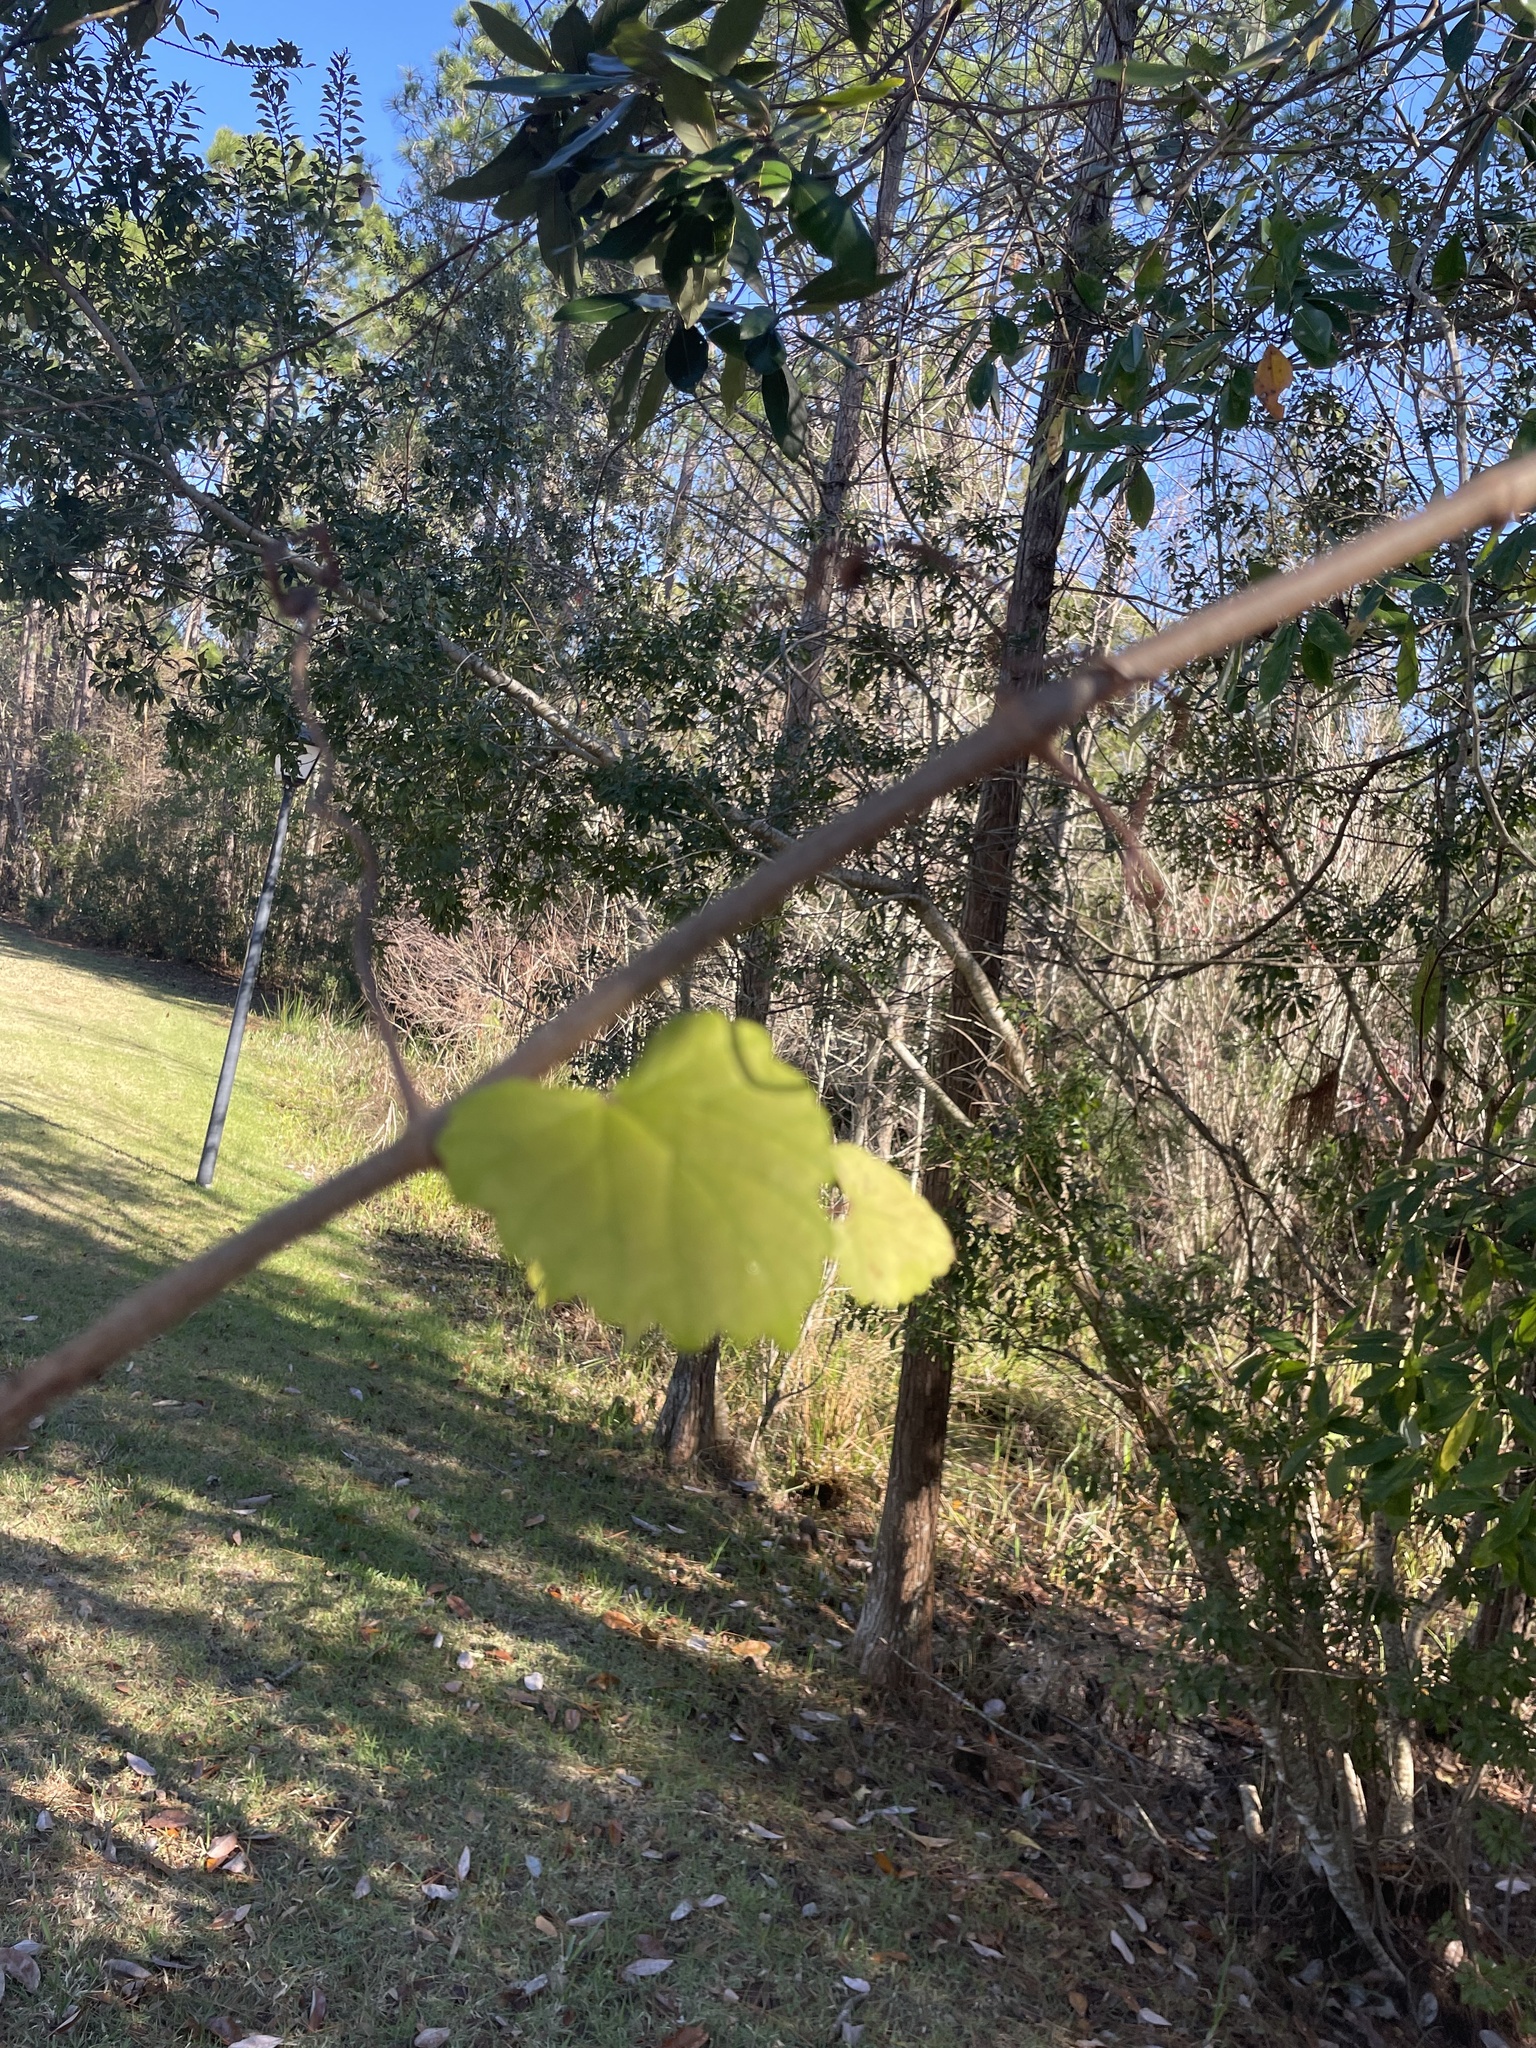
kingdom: Plantae
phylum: Tracheophyta
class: Magnoliopsida
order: Vitales
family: Vitaceae
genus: Vitis
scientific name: Vitis rotundifolia
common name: Muscadine grape
